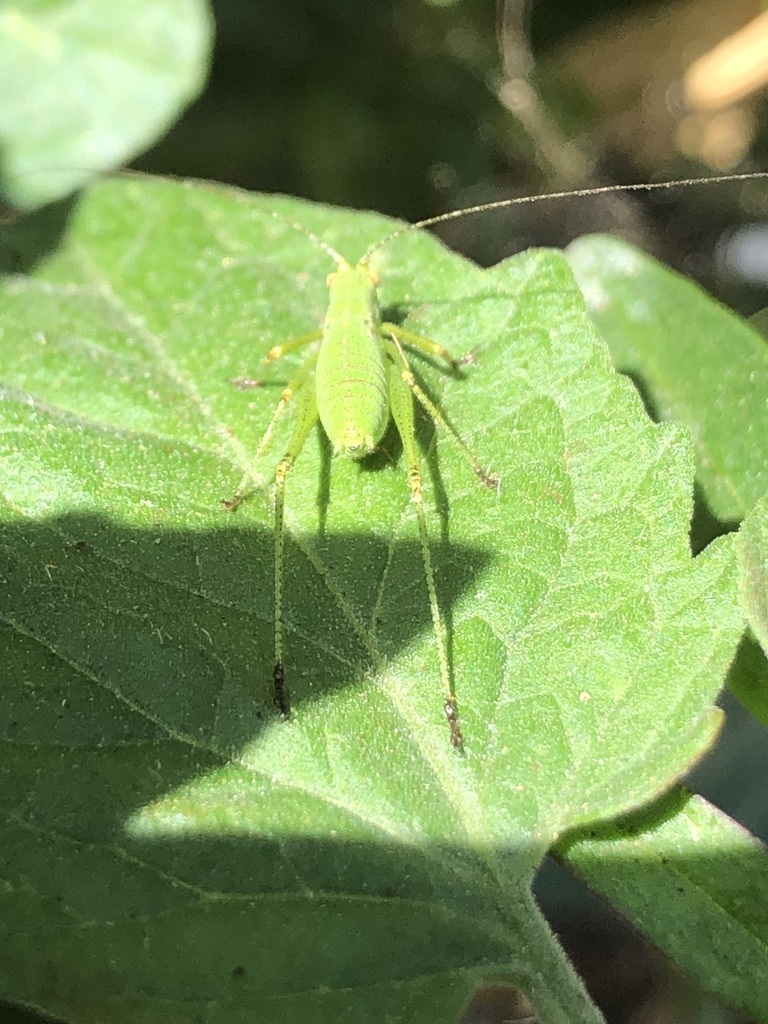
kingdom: Animalia
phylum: Arthropoda
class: Insecta
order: Orthoptera
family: Tettigoniidae
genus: Phaneroptera
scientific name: Phaneroptera nana
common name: Southern sickle bush-cricket
